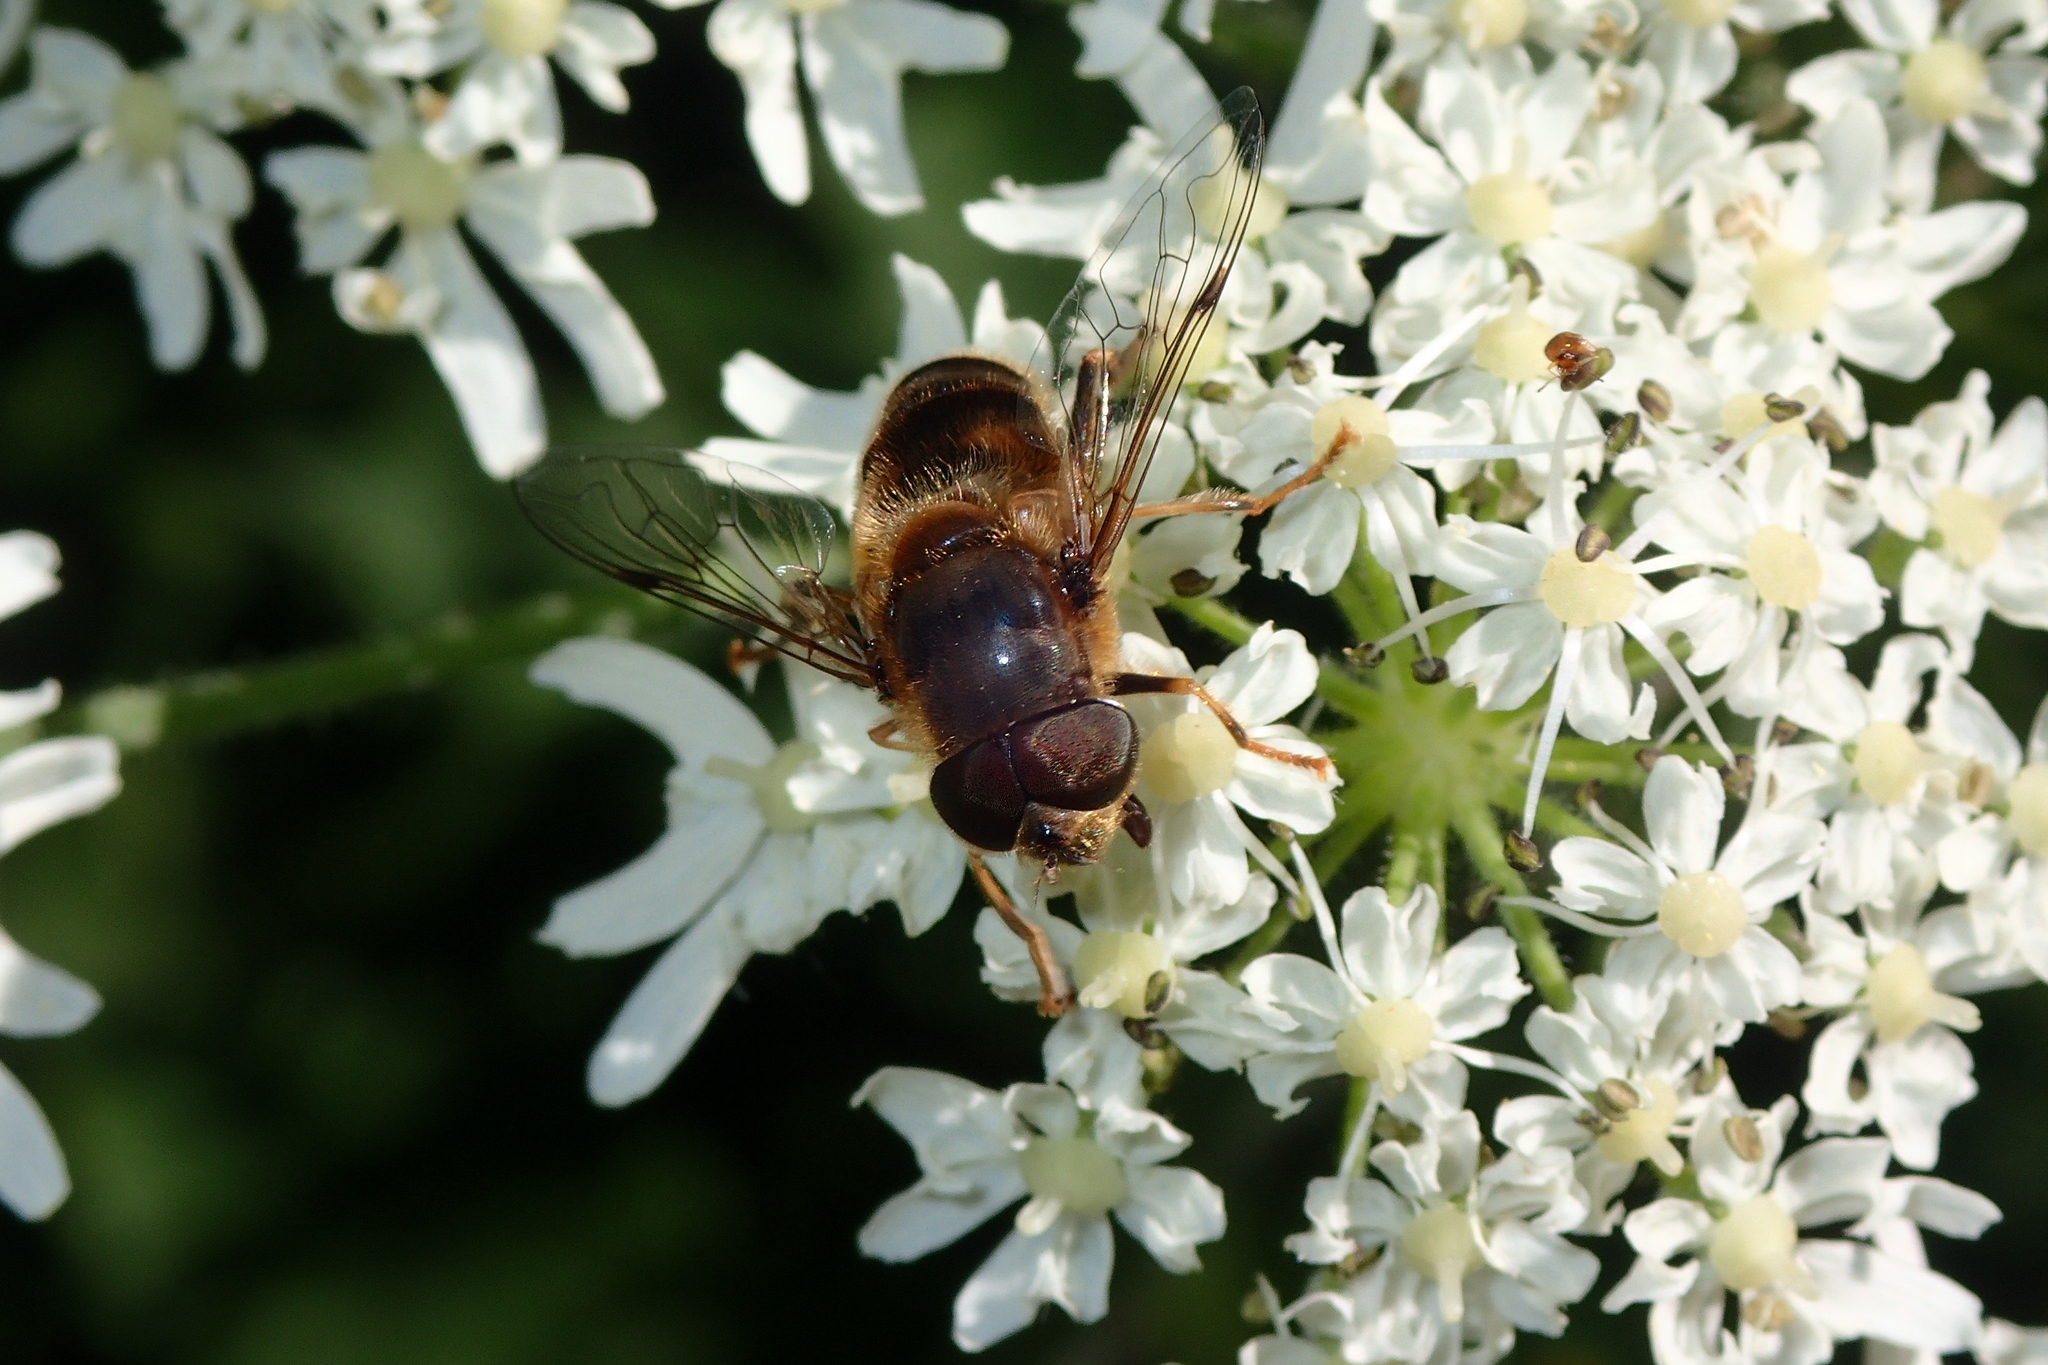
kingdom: Animalia
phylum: Arthropoda
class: Insecta
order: Diptera
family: Syrphidae
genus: Eristalis
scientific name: Eristalis pertinax
